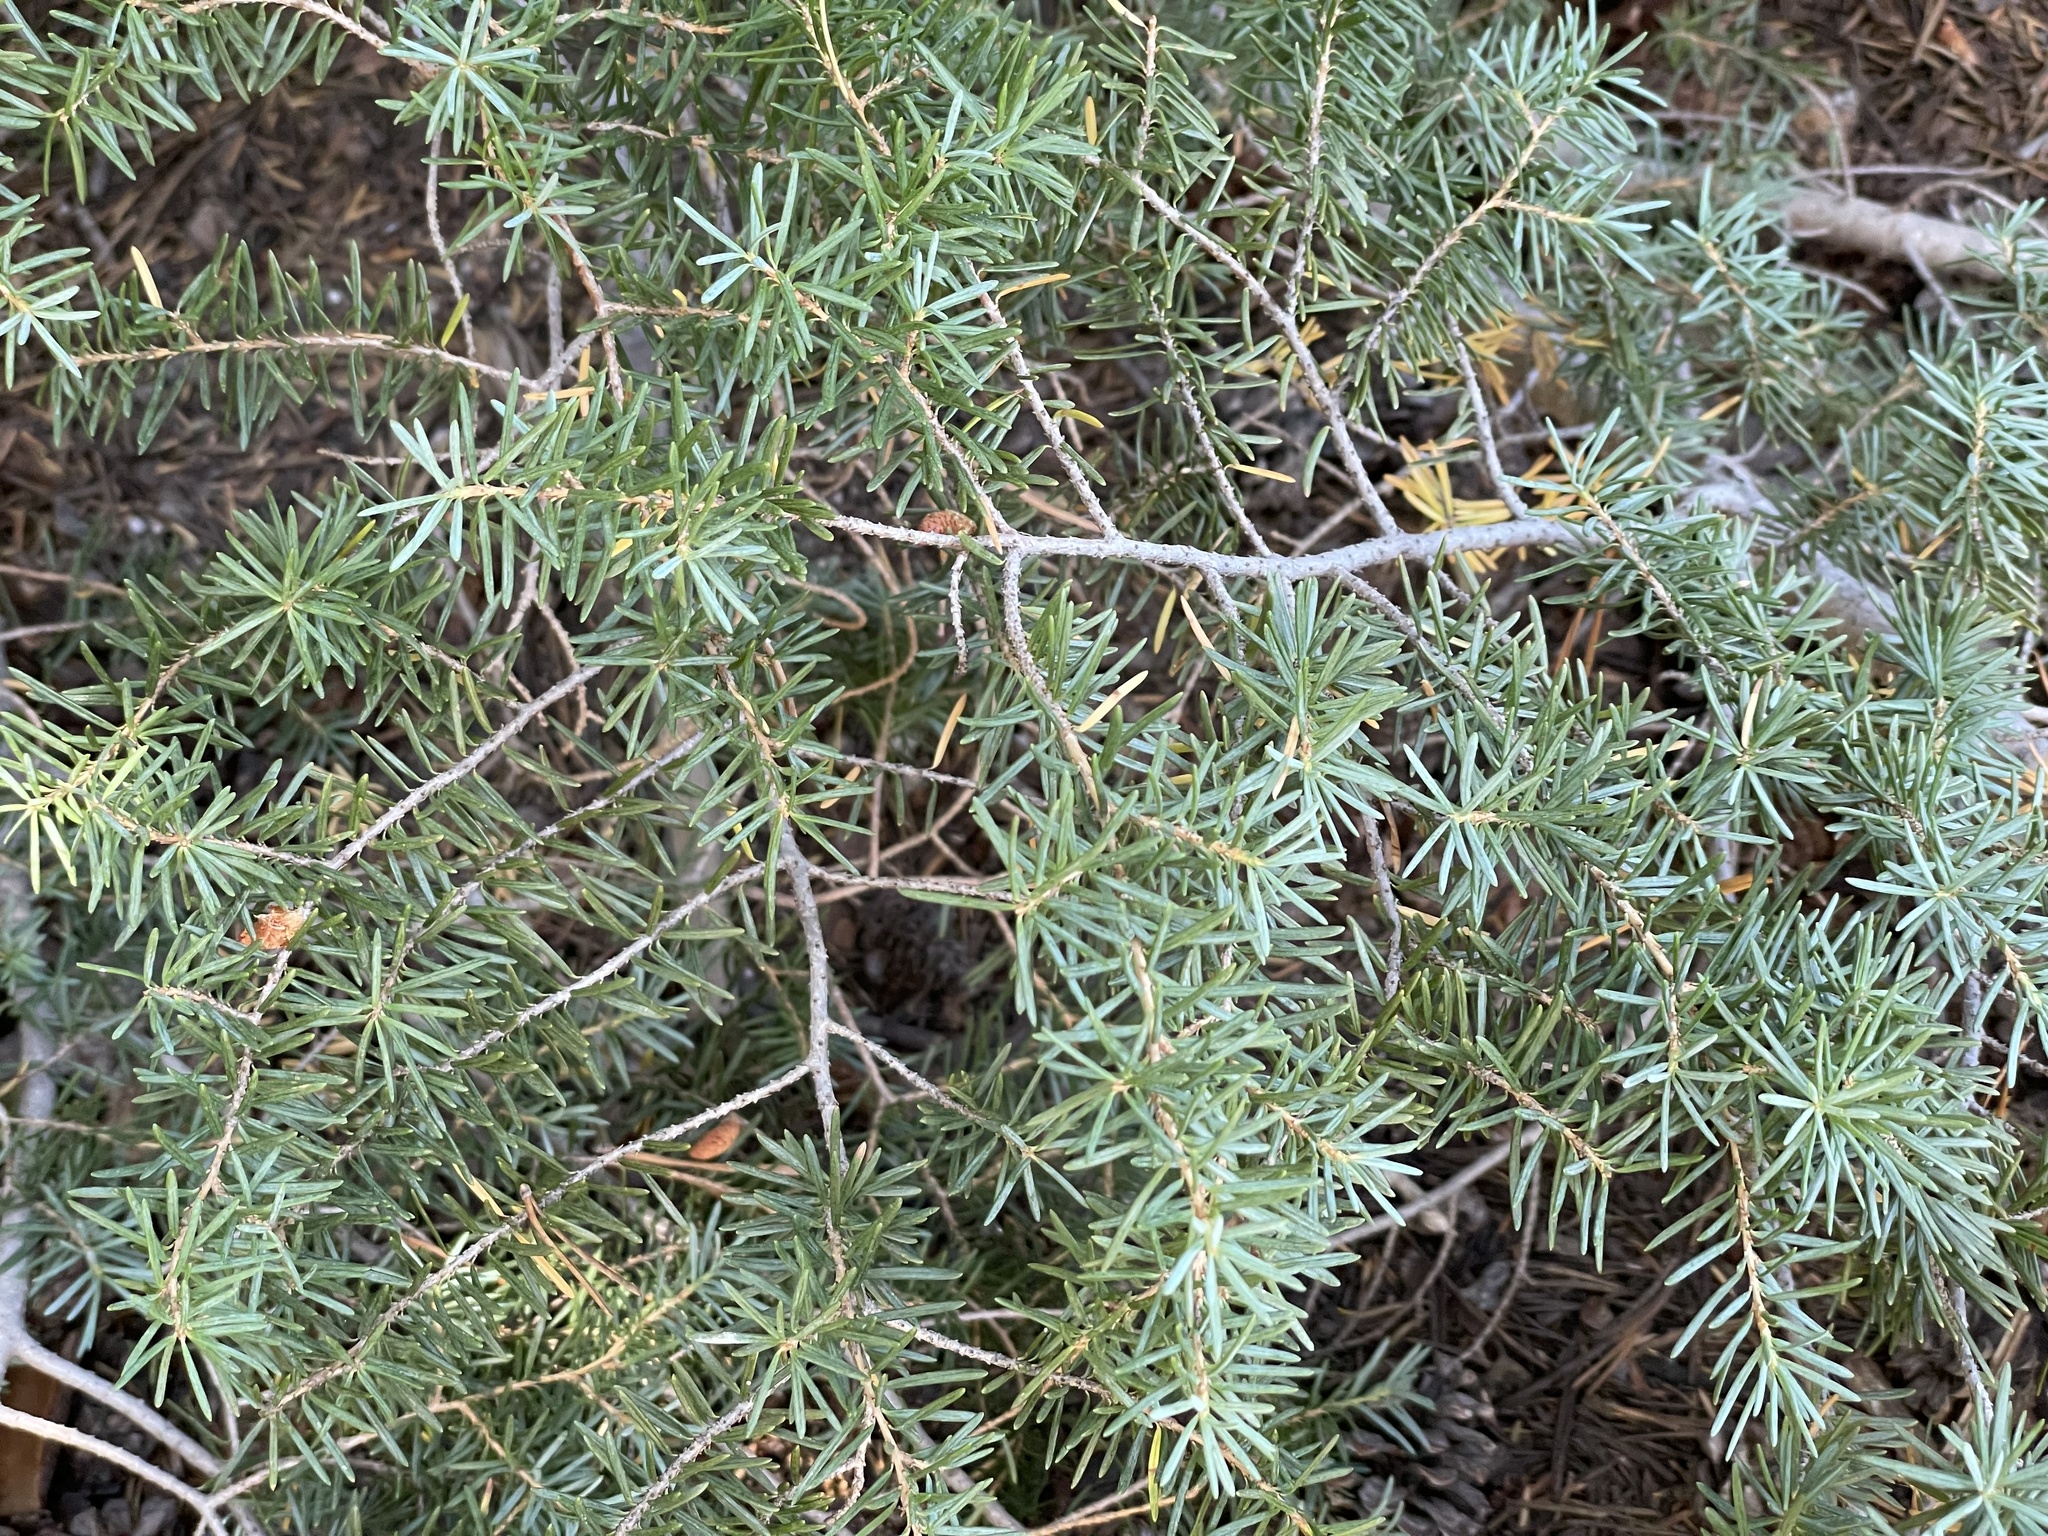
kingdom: Plantae
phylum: Tracheophyta
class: Pinopsida
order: Pinales
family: Pinaceae
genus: Tsuga
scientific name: Tsuga mertensiana
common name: Mountain hemlock
